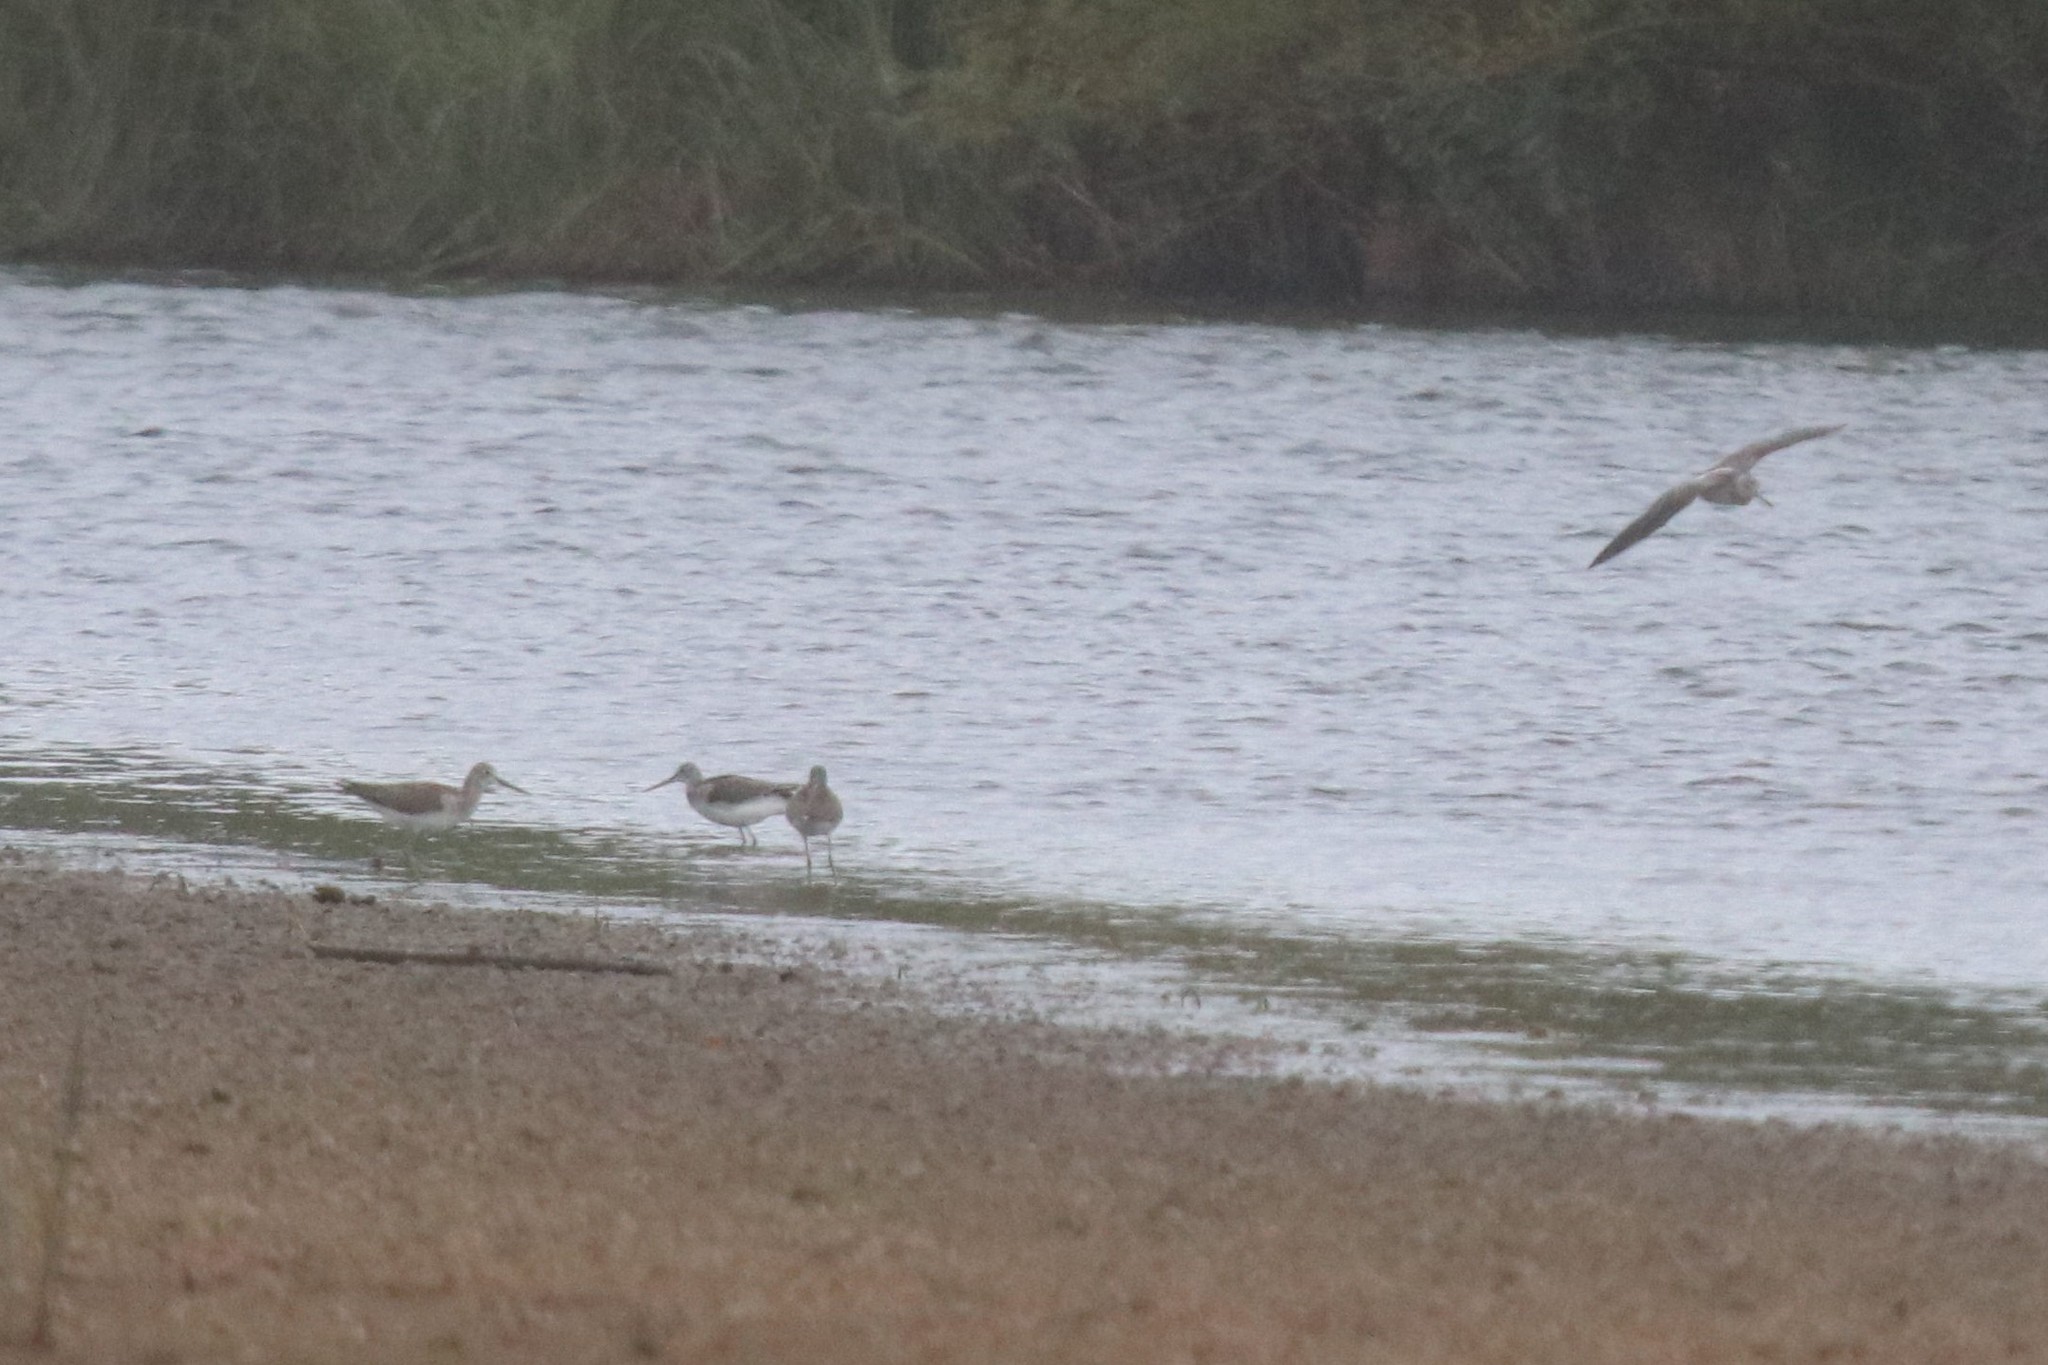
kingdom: Animalia
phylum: Chordata
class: Aves
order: Charadriiformes
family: Scolopacidae
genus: Tringa
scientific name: Tringa nebularia
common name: Common greenshank
